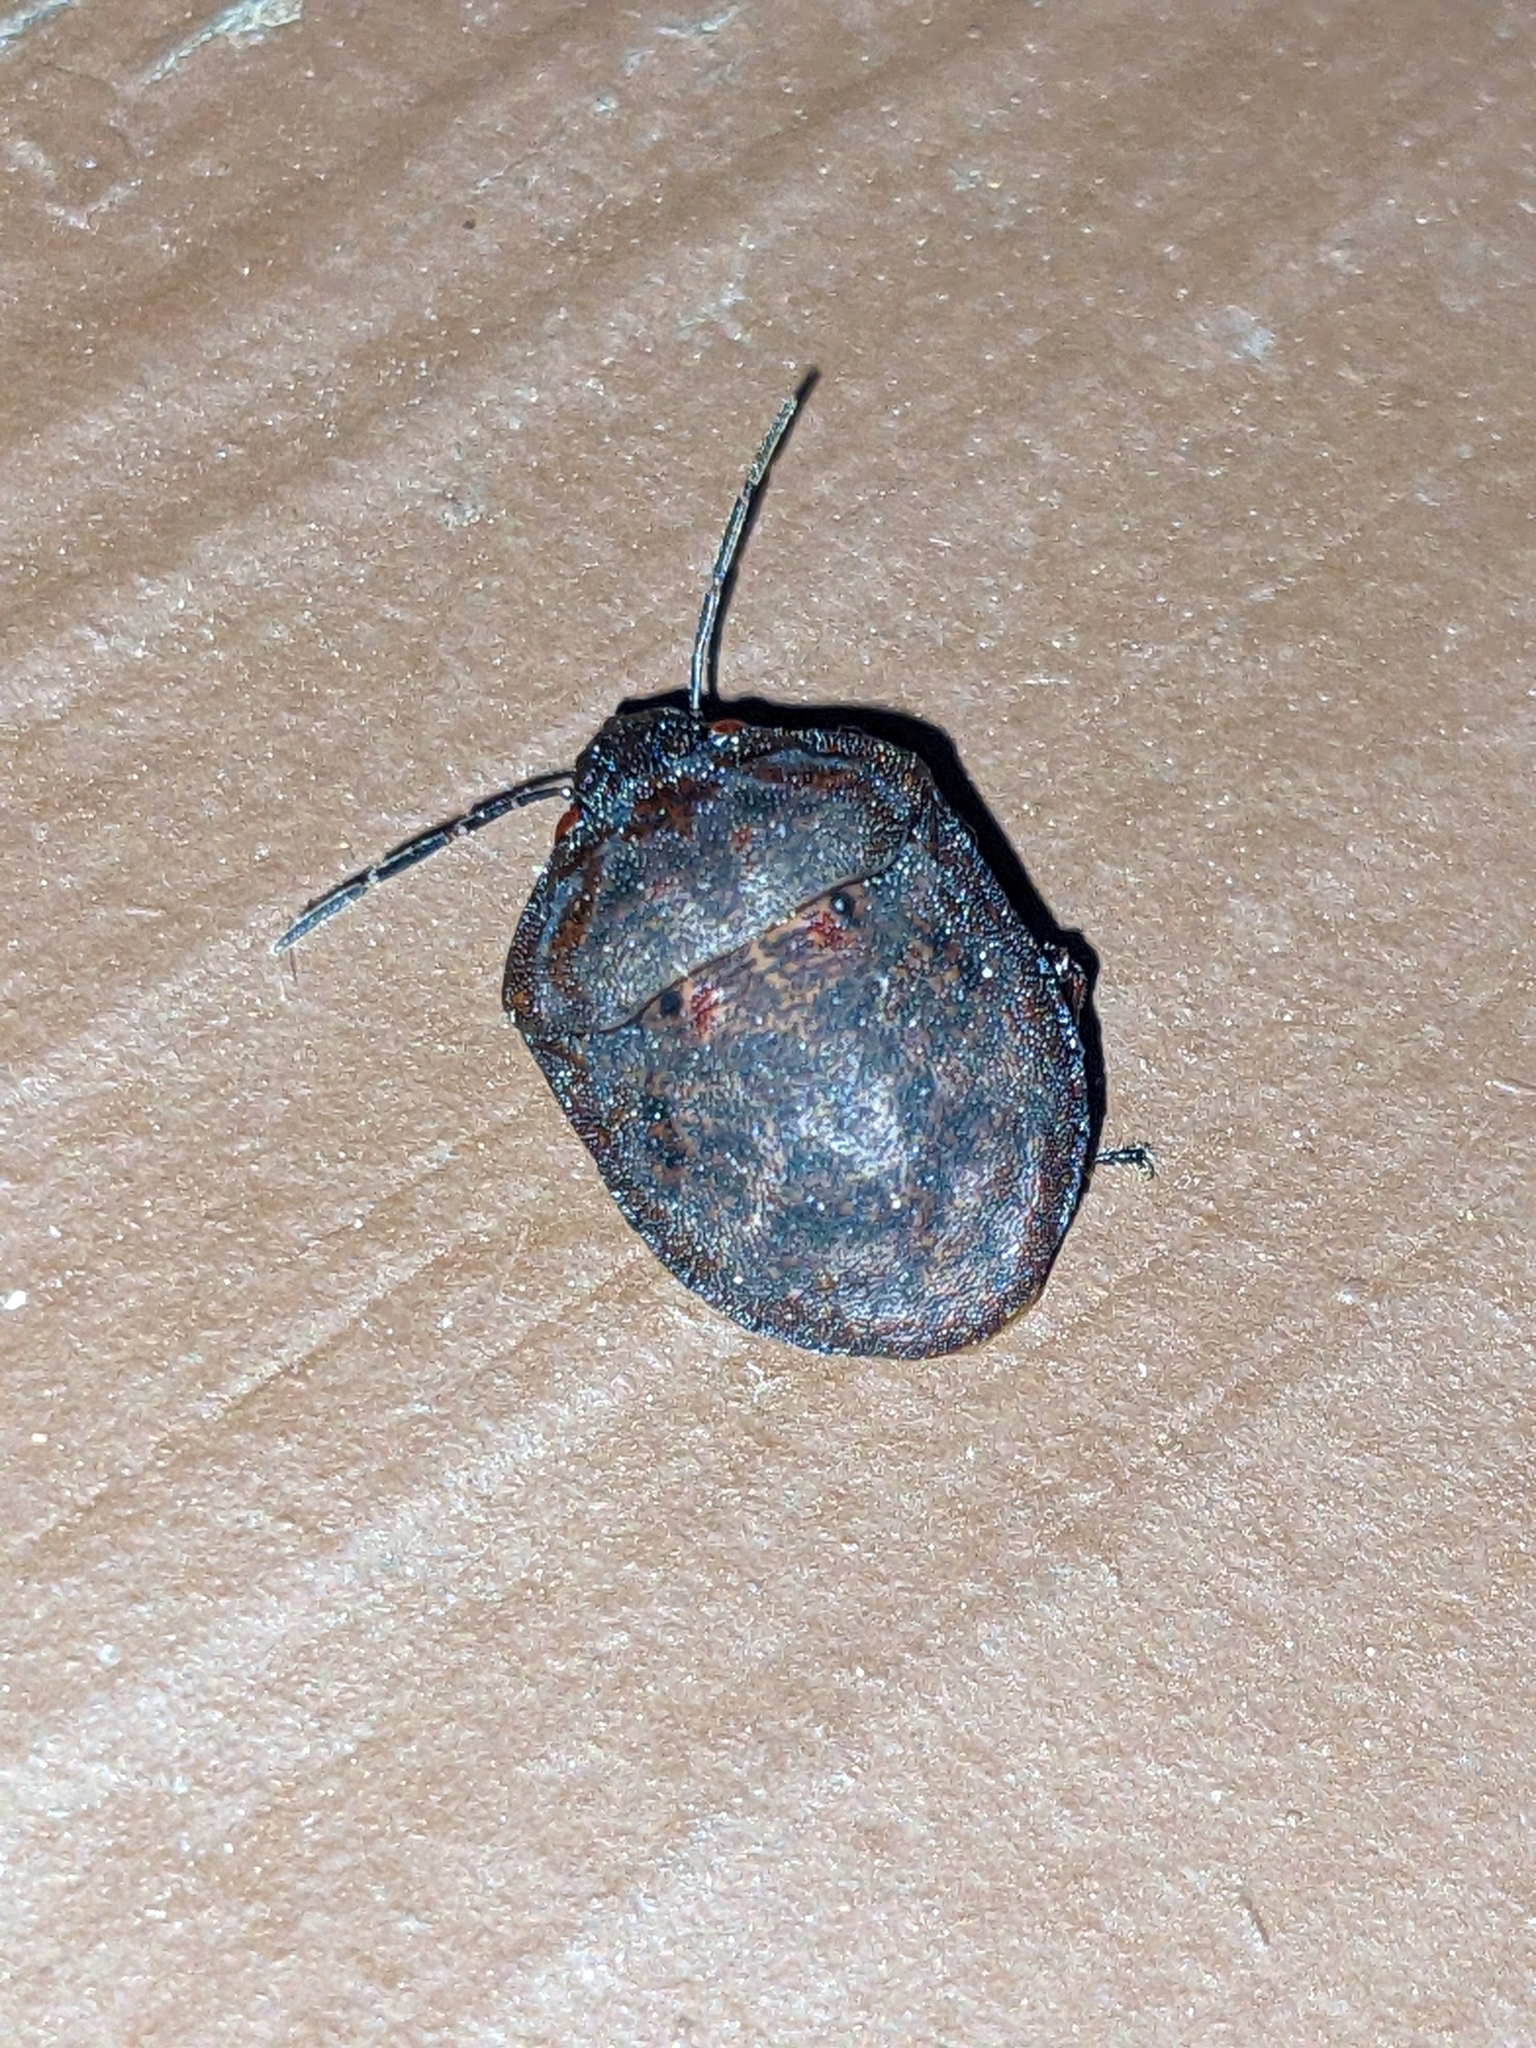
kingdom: Animalia
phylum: Arthropoda
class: Insecta
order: Hemiptera
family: Scutelleridae
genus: Tetyra
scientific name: Tetyra bipunctata
